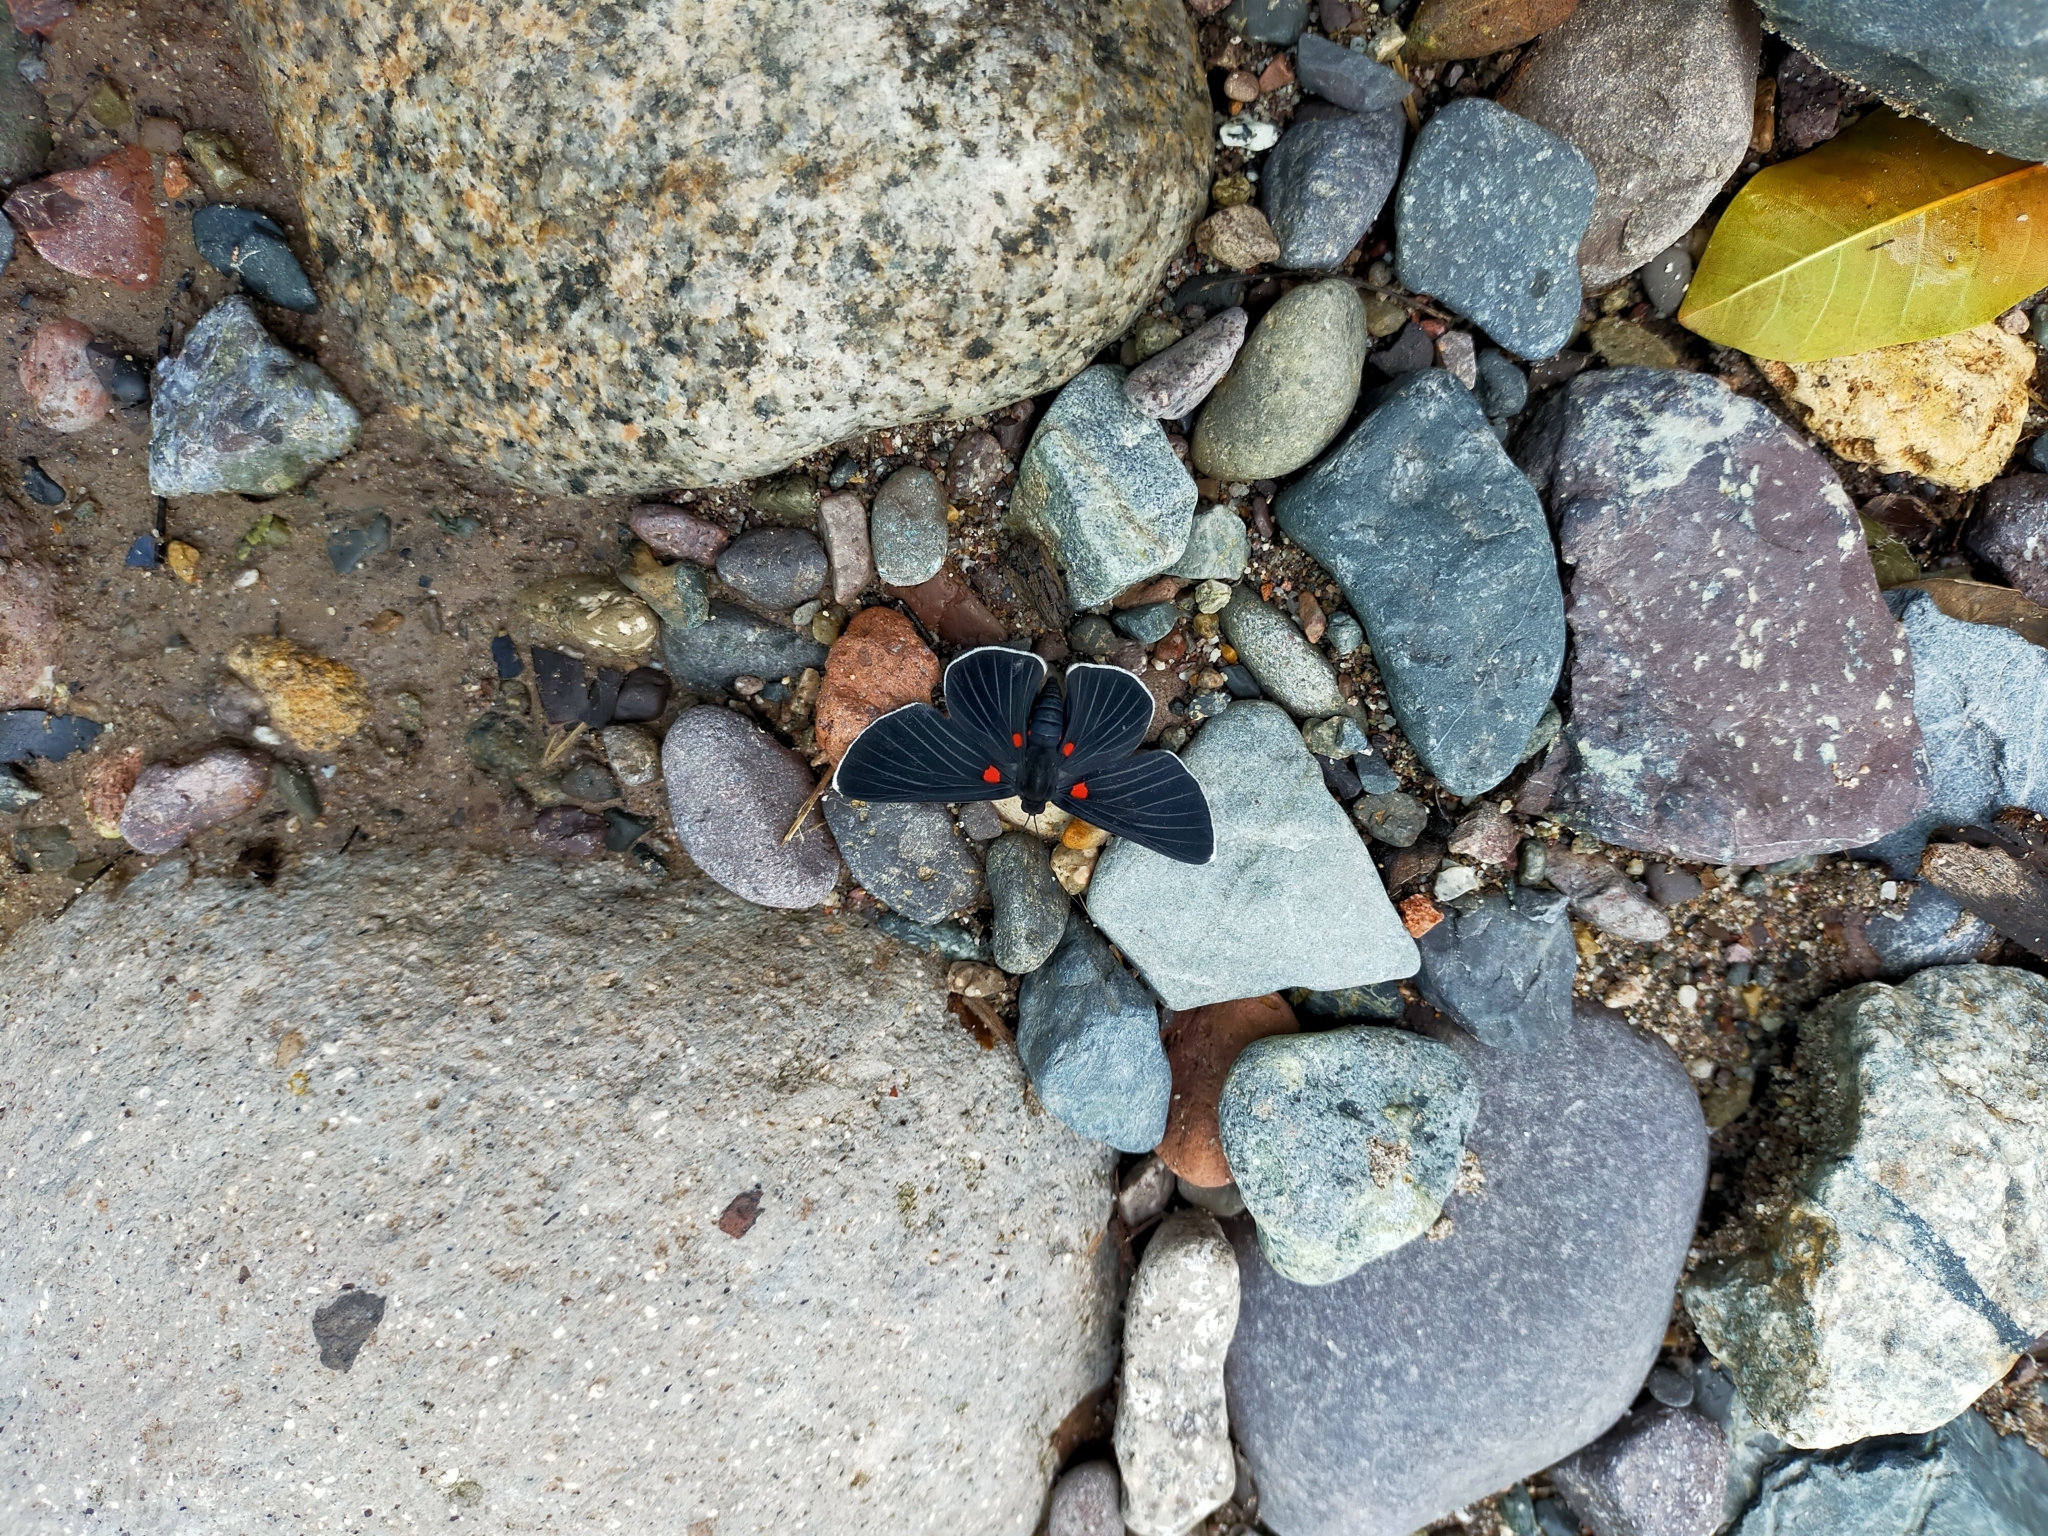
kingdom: Animalia
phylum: Arthropoda
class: Insecta
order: Lepidoptera
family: Lycaenidae
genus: Melanis
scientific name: Melanis
